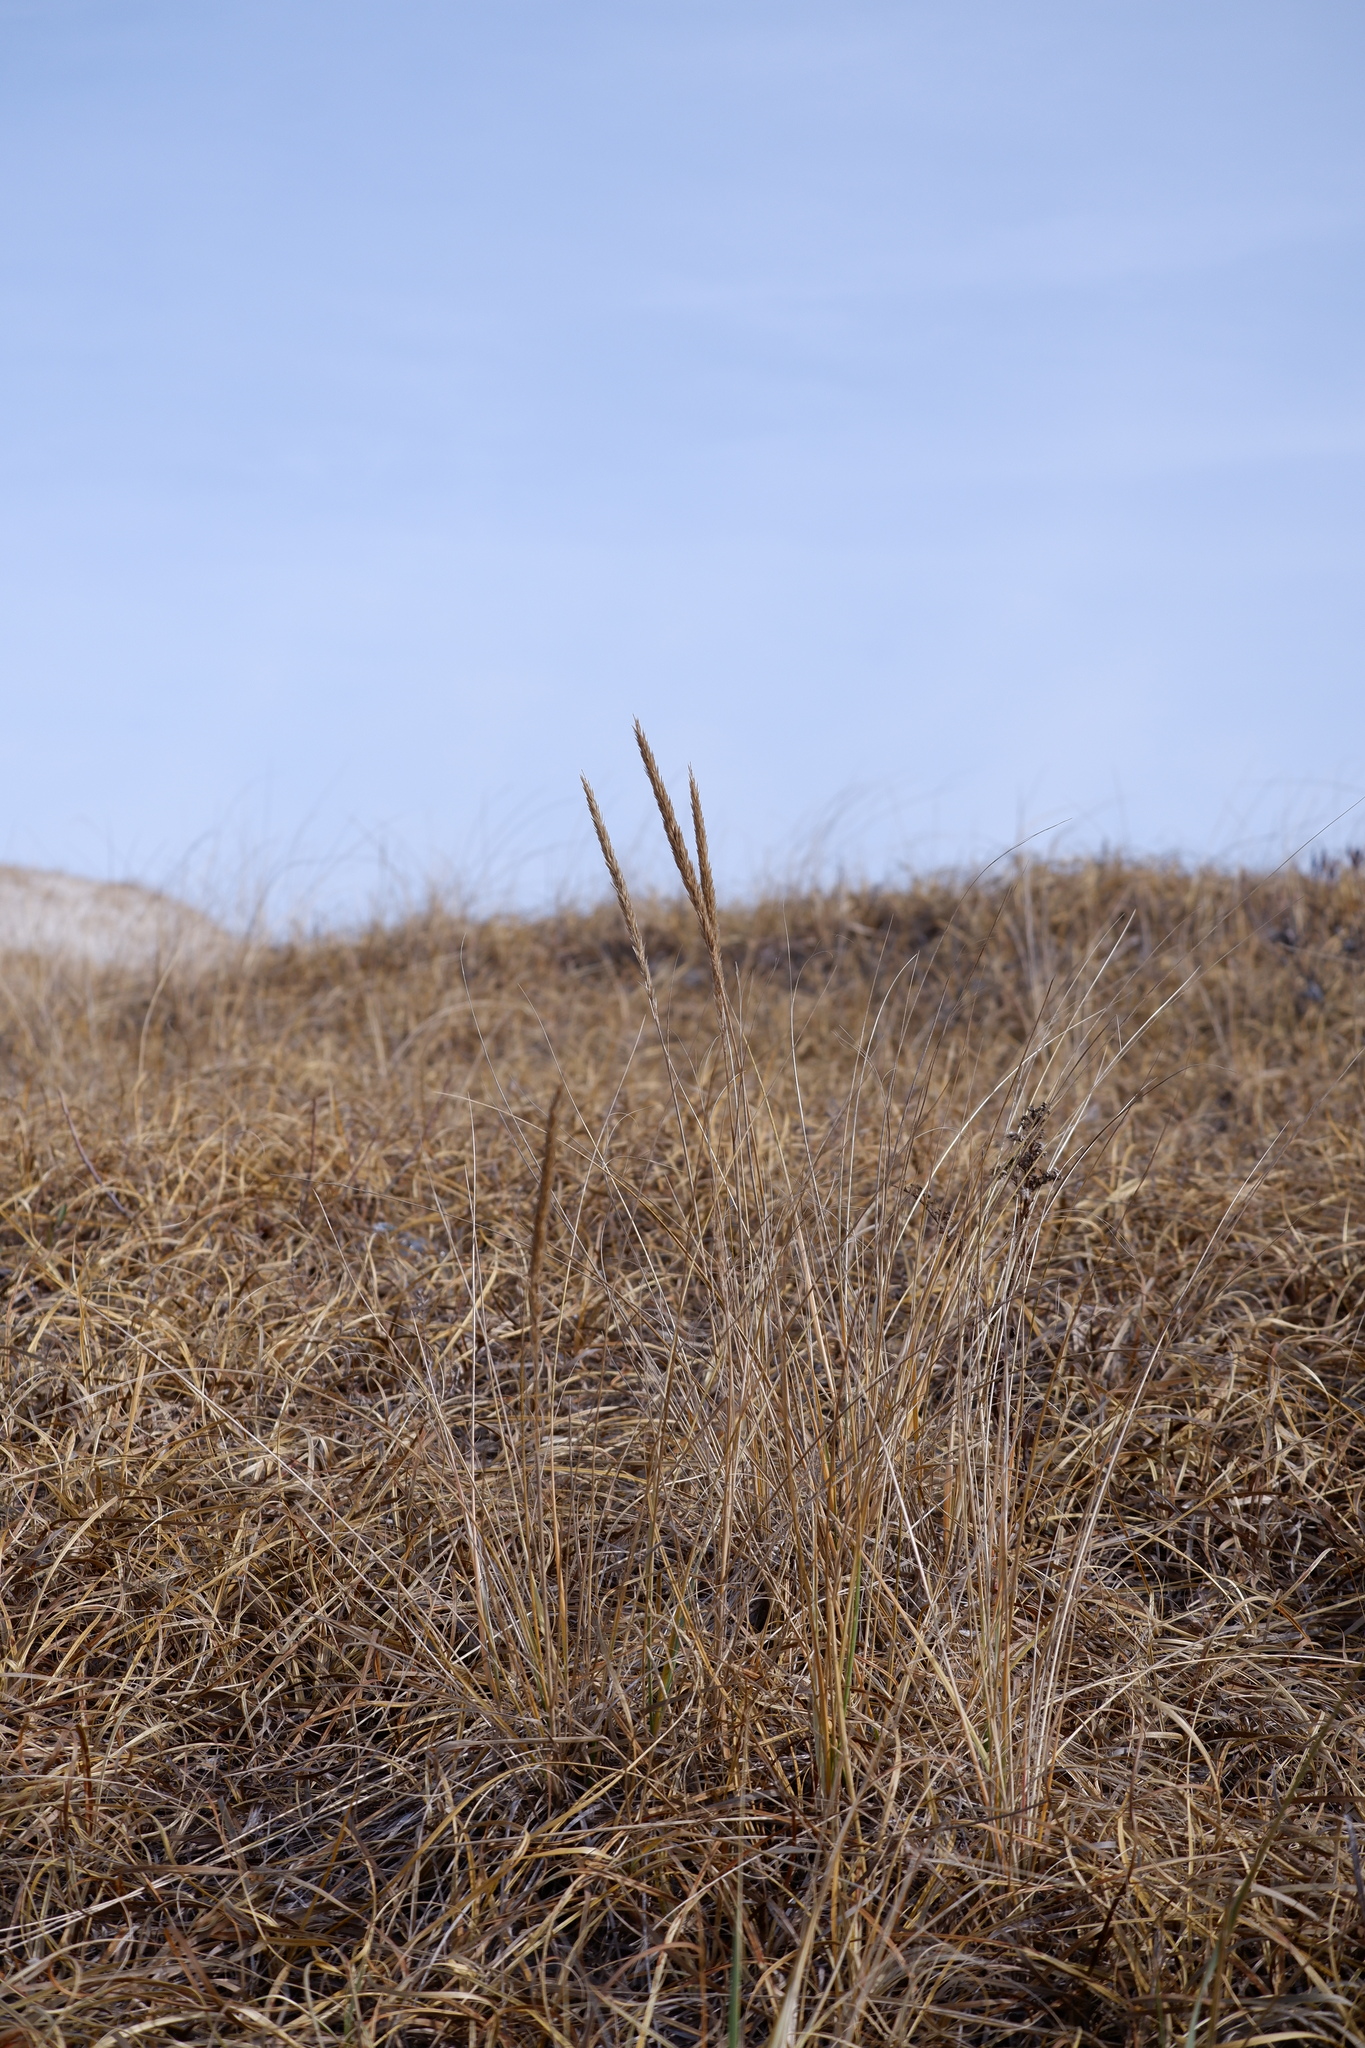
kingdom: Plantae
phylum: Tracheophyta
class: Liliopsida
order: Poales
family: Poaceae
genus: Calamagrostis
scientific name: Calamagrostis breviligulata
